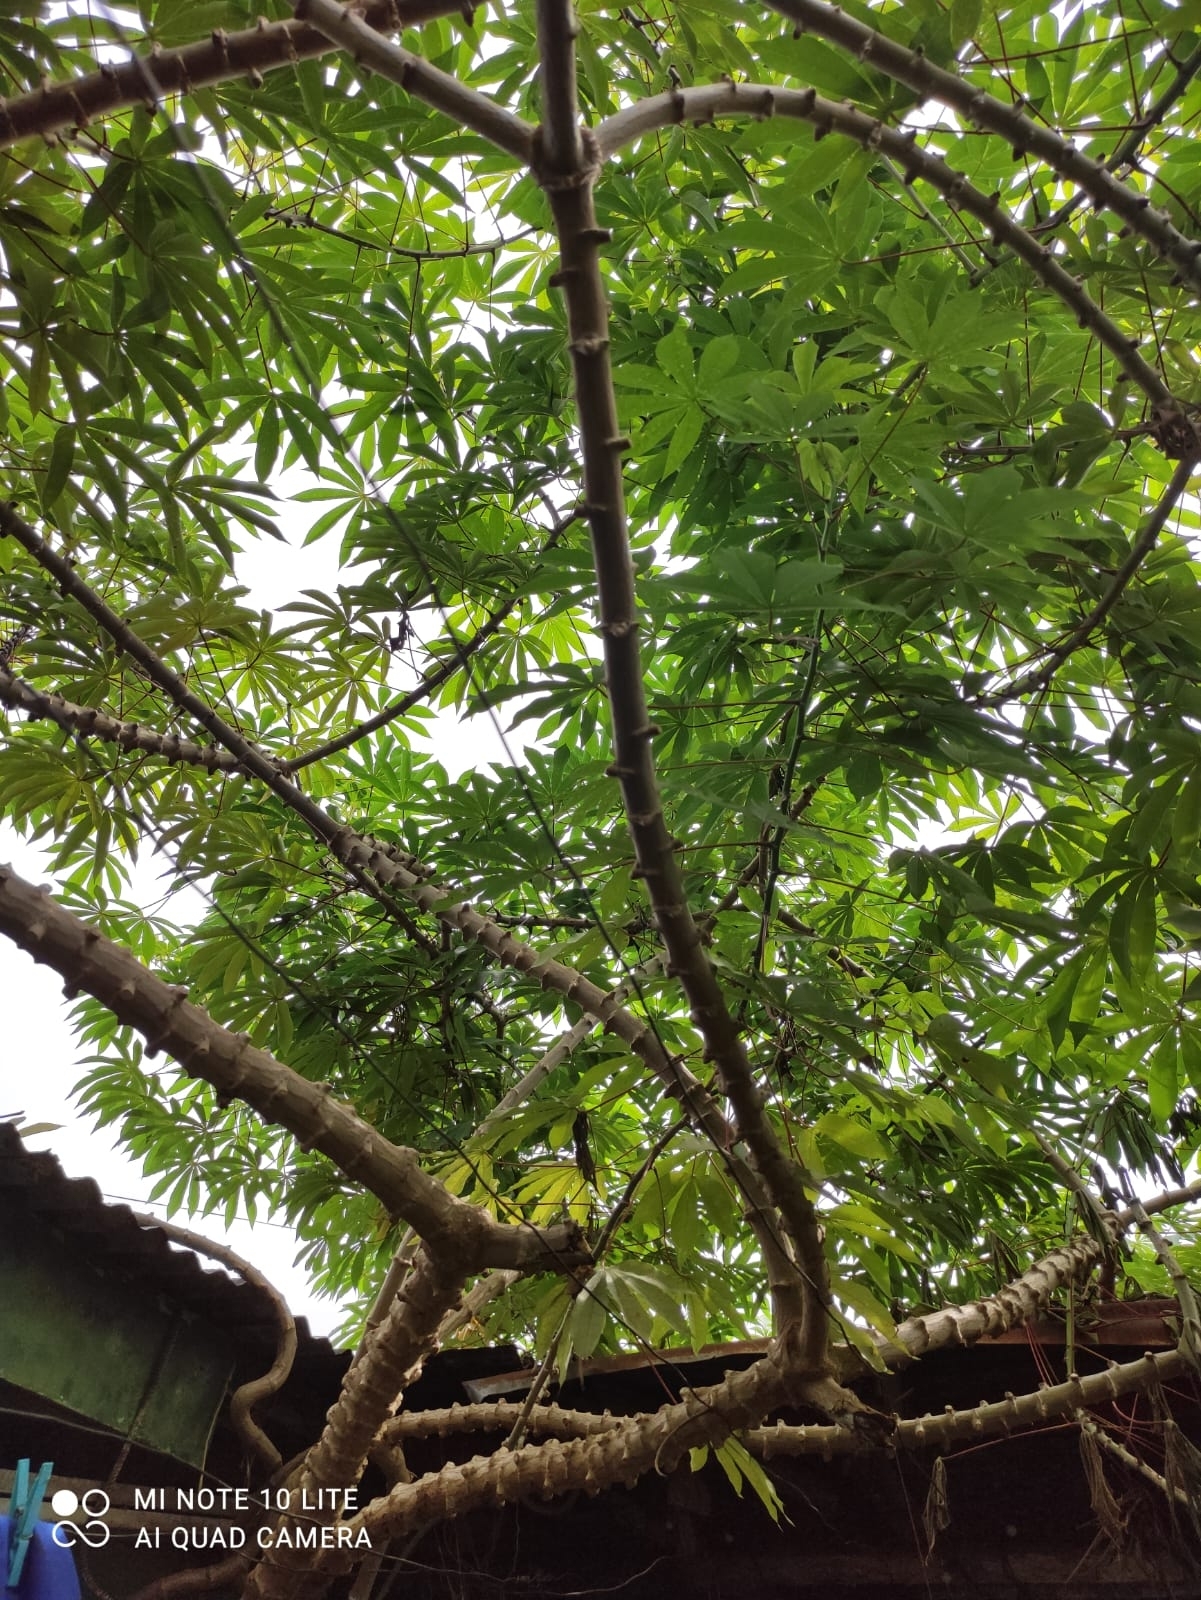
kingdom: Plantae
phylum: Tracheophyta
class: Magnoliopsida
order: Malpighiales
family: Euphorbiaceae
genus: Manihot
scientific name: Manihot esculenta
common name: Cassava
